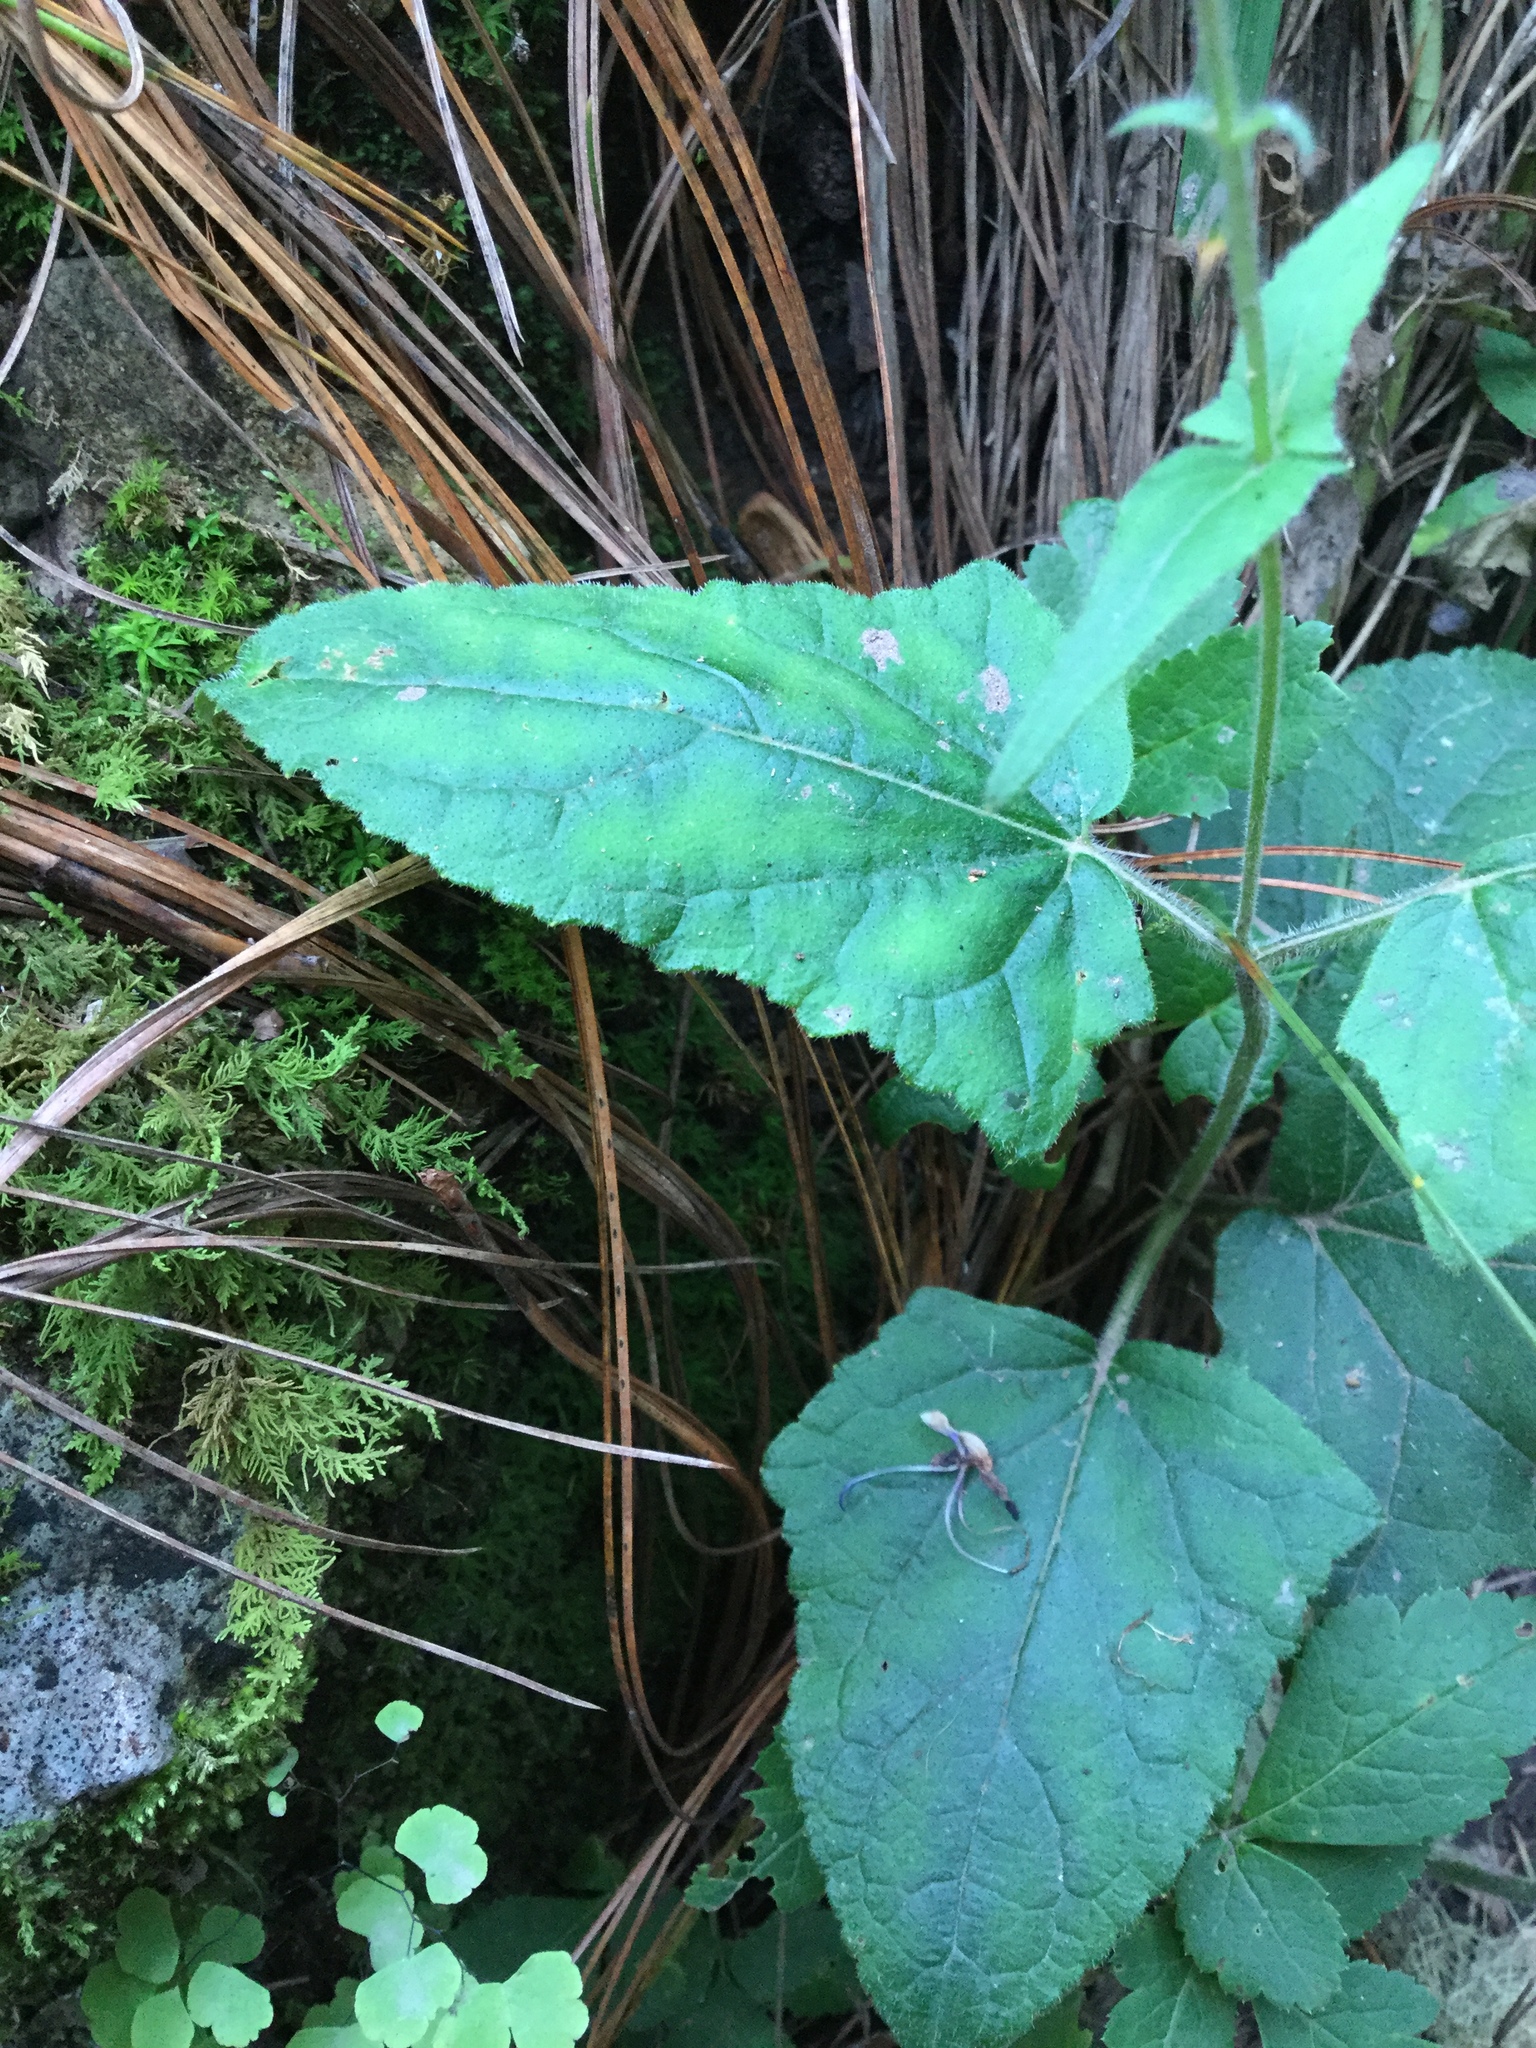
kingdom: Plantae
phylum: Tracheophyta
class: Magnoliopsida
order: Lamiales
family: Lamiaceae
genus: Salvia
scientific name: Salvia vitifolia
